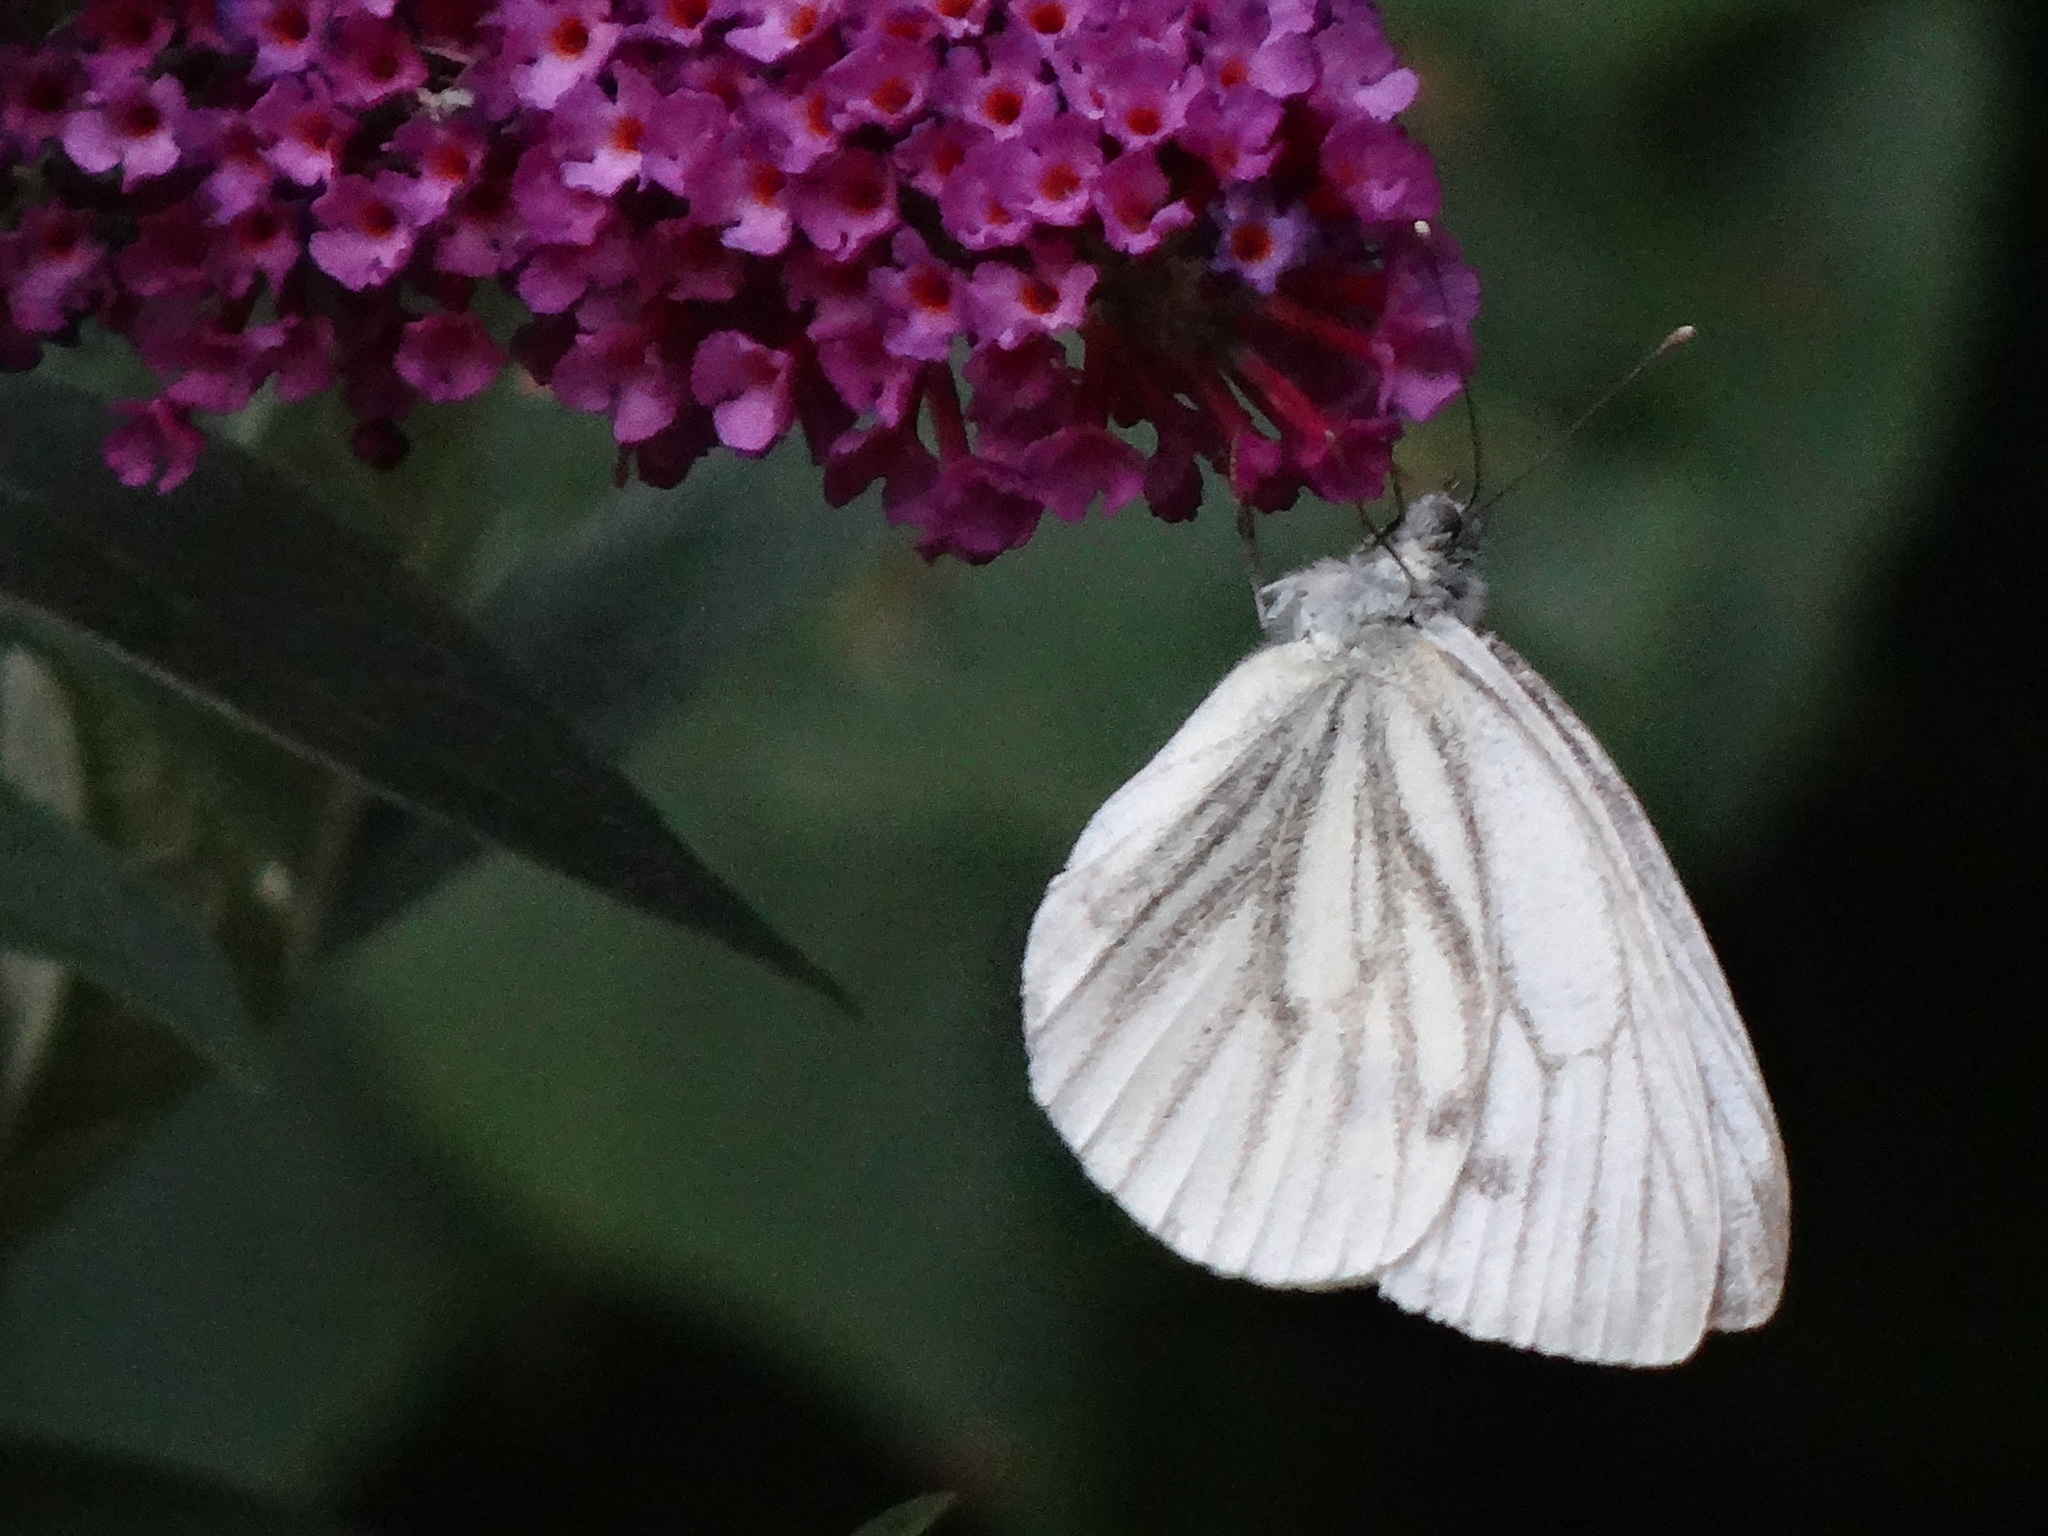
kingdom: Animalia
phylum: Arthropoda
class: Insecta
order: Lepidoptera
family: Pieridae
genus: Pieris
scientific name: Pieris napi
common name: Green-veined white
